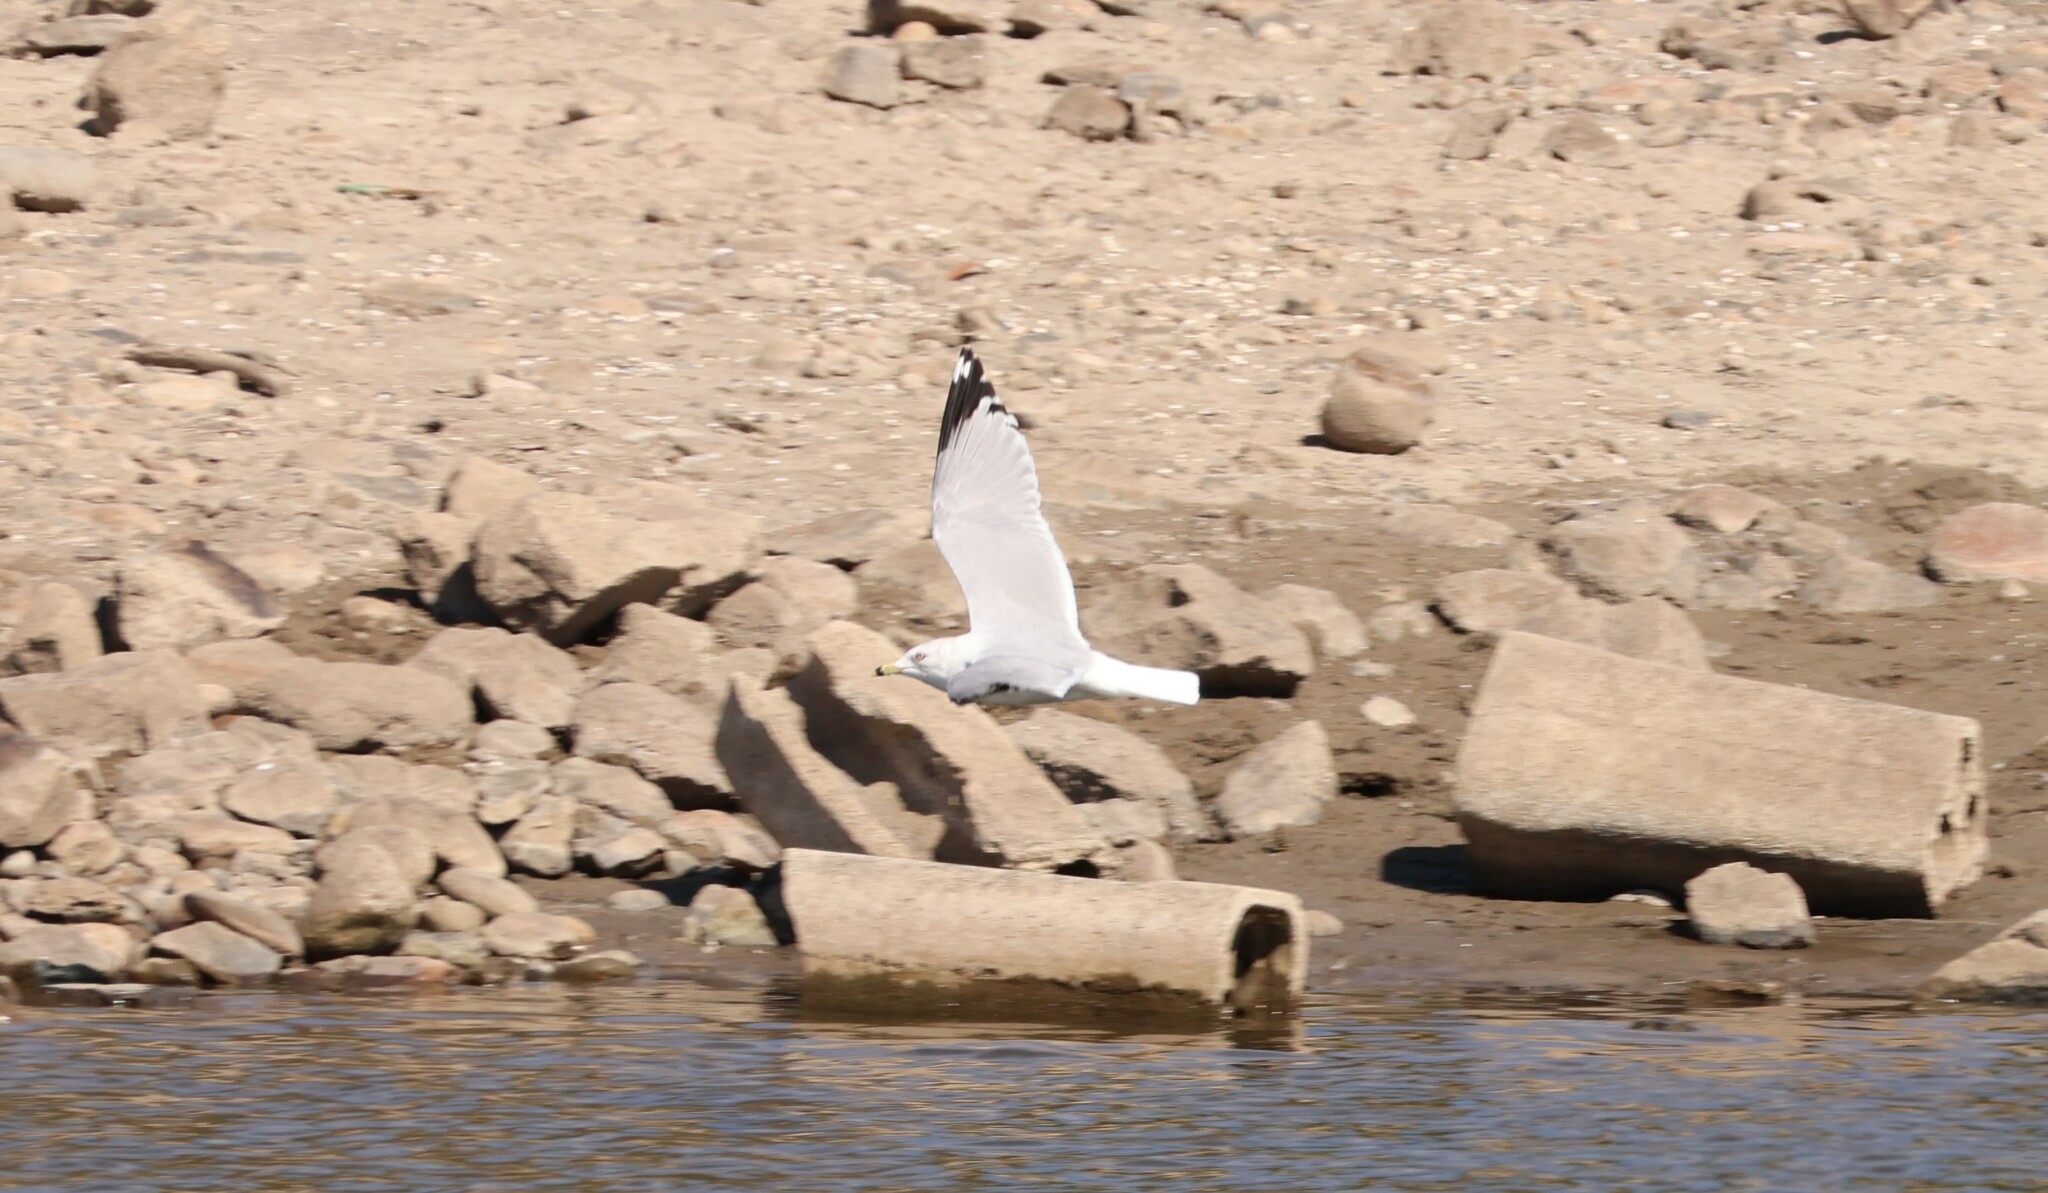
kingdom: Animalia
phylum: Chordata
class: Aves
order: Charadriiformes
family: Laridae
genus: Larus
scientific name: Larus delawarensis
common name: Ring-billed gull
